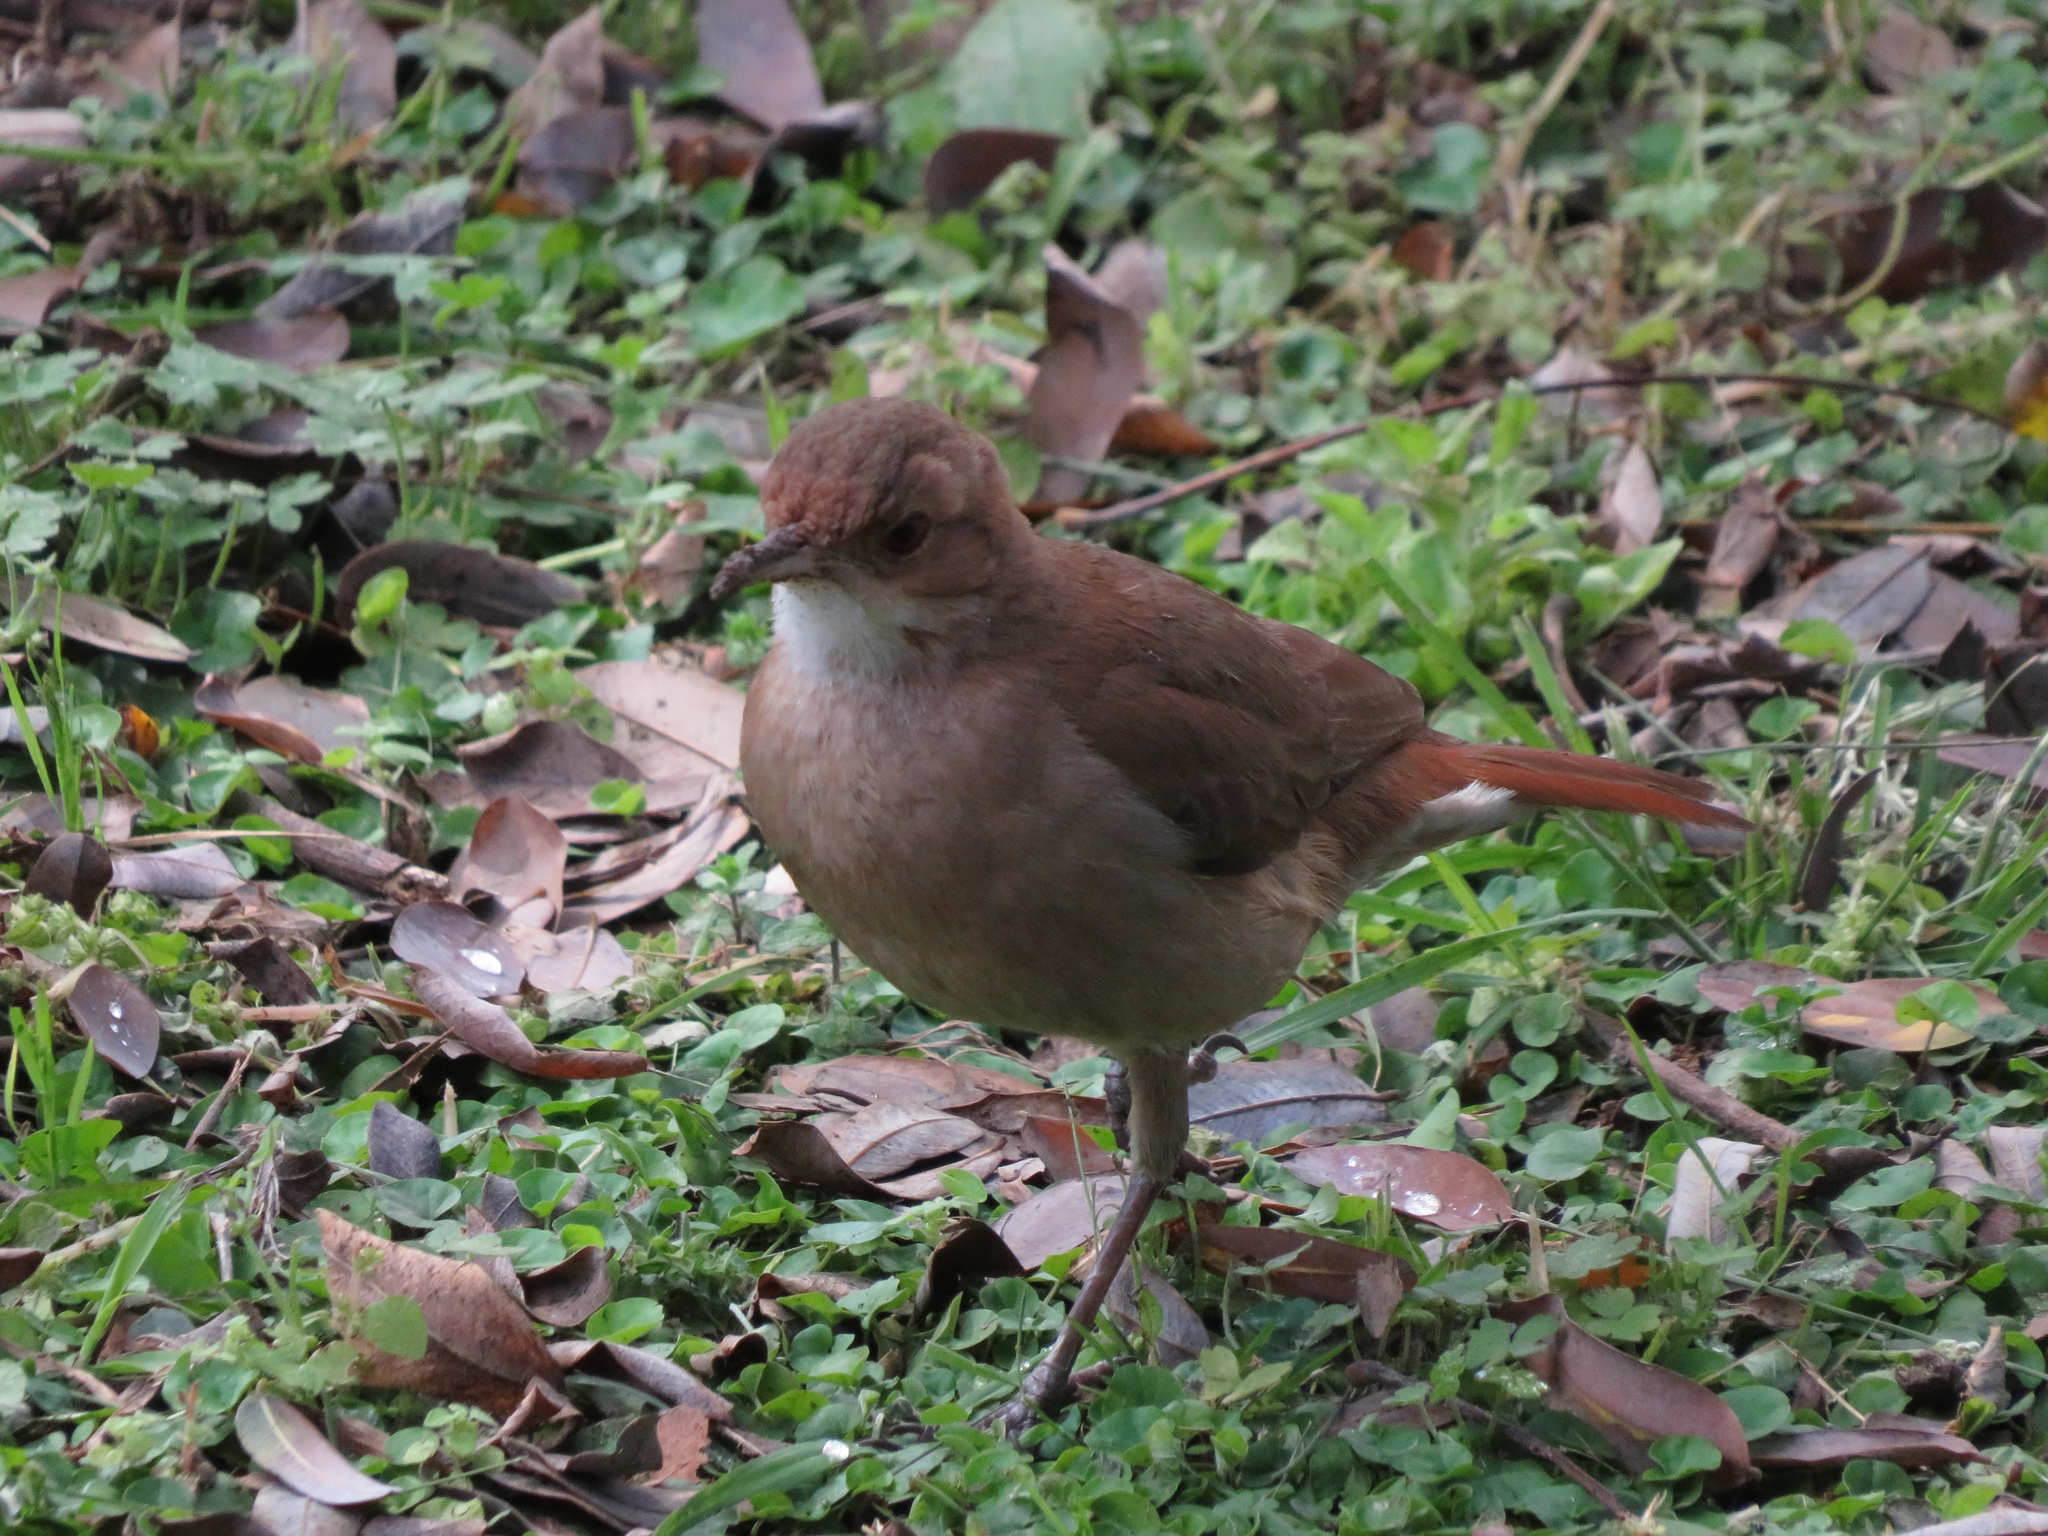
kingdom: Animalia
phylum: Chordata
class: Aves
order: Passeriformes
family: Furnariidae
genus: Furnarius
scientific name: Furnarius rufus
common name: Rufous hornero
